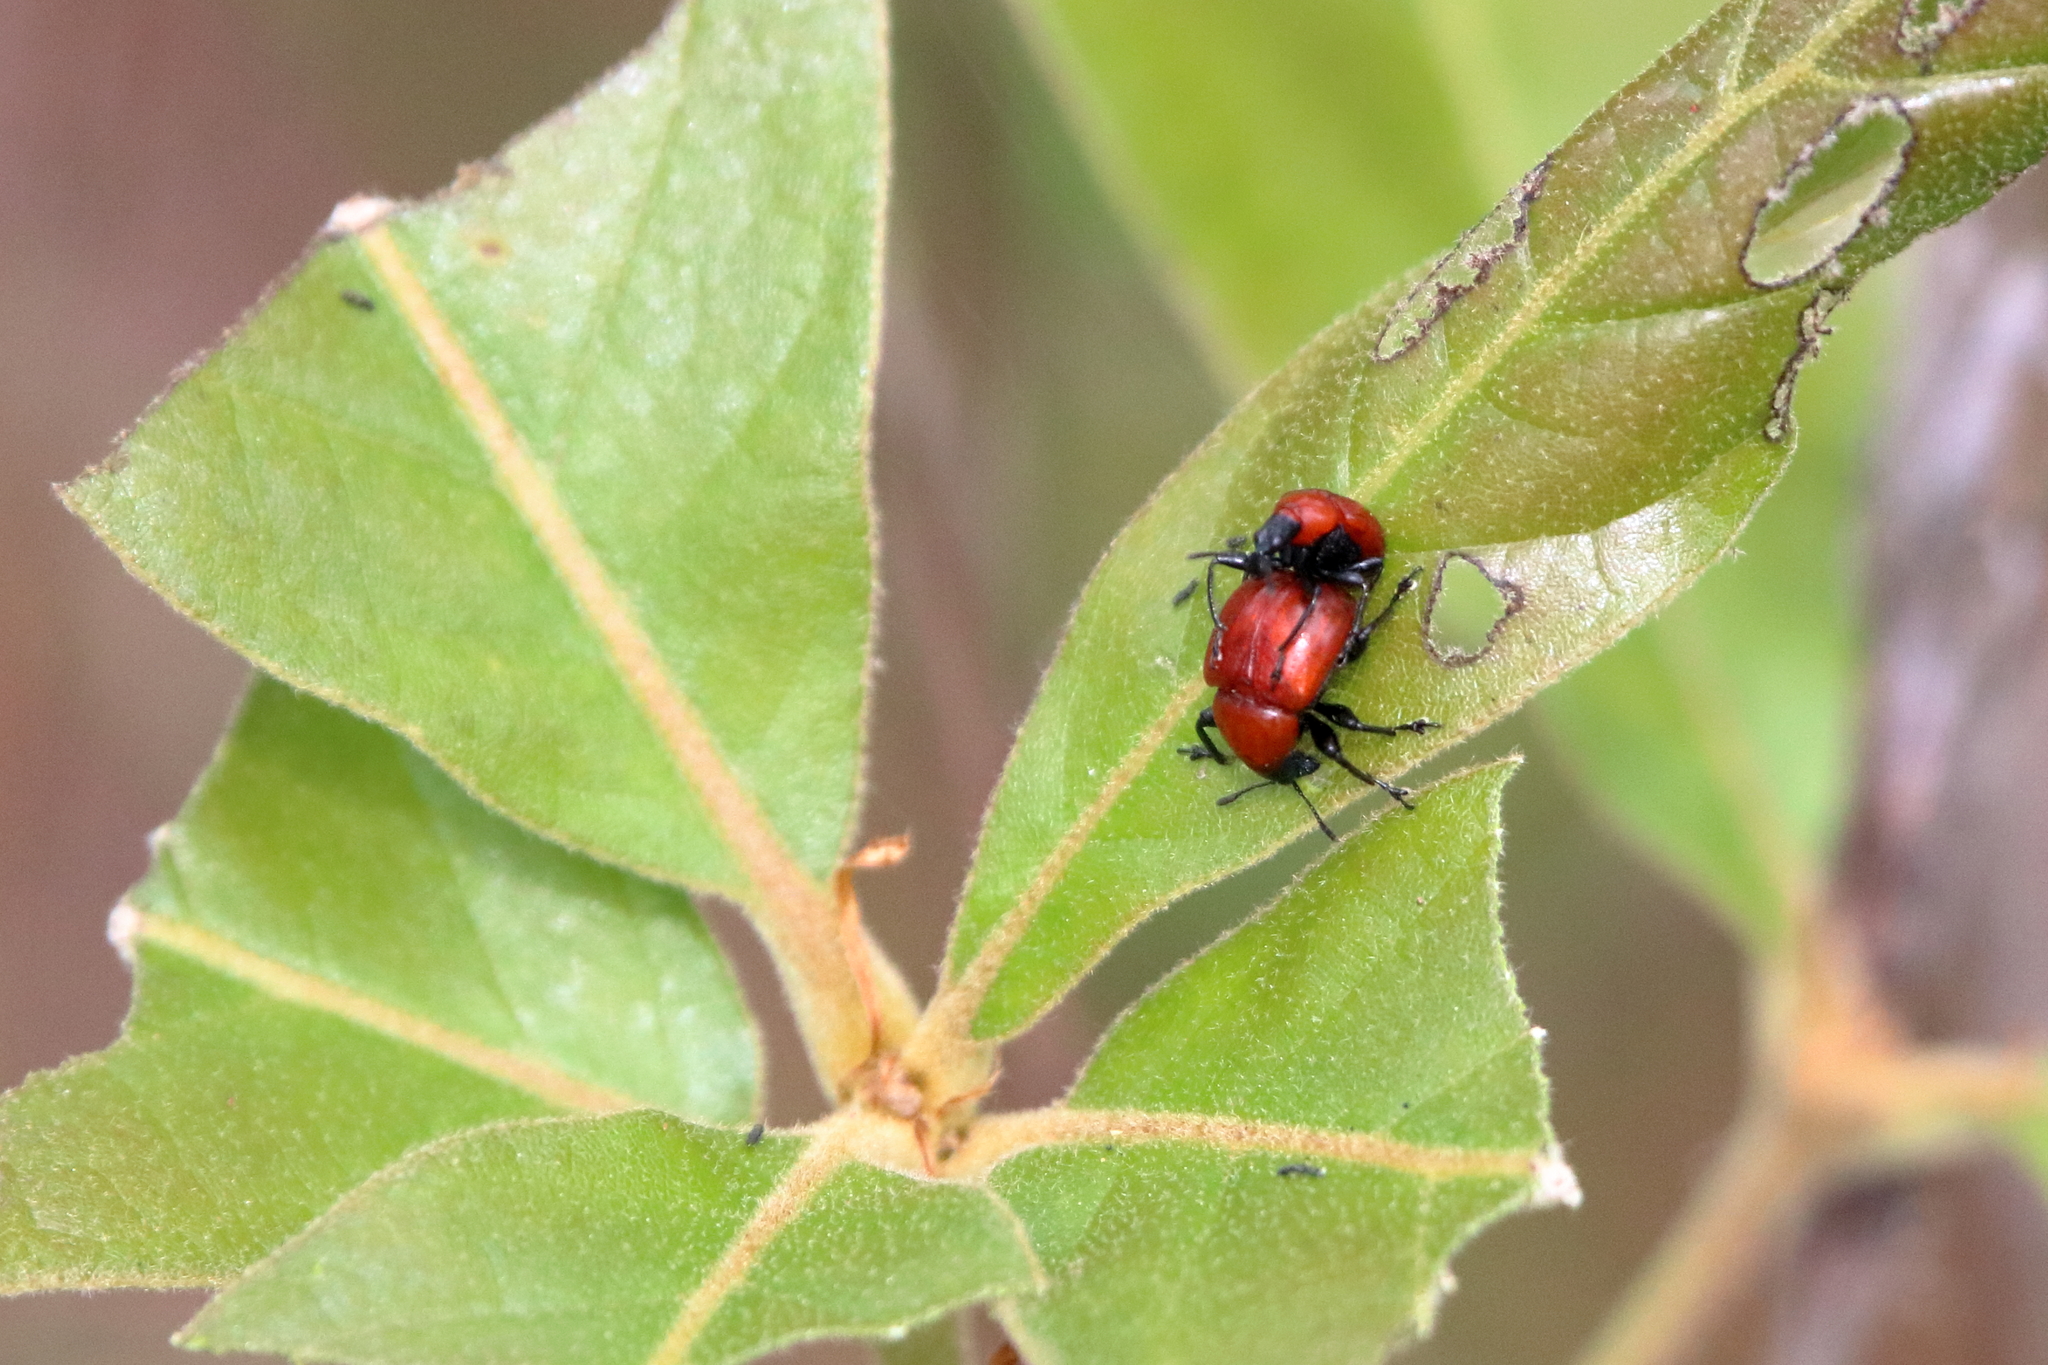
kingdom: Animalia
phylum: Arthropoda
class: Insecta
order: Coleoptera
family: Attelabidae
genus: Homoeolabus
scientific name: Homoeolabus analis
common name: Oak leaf rolling weevil
